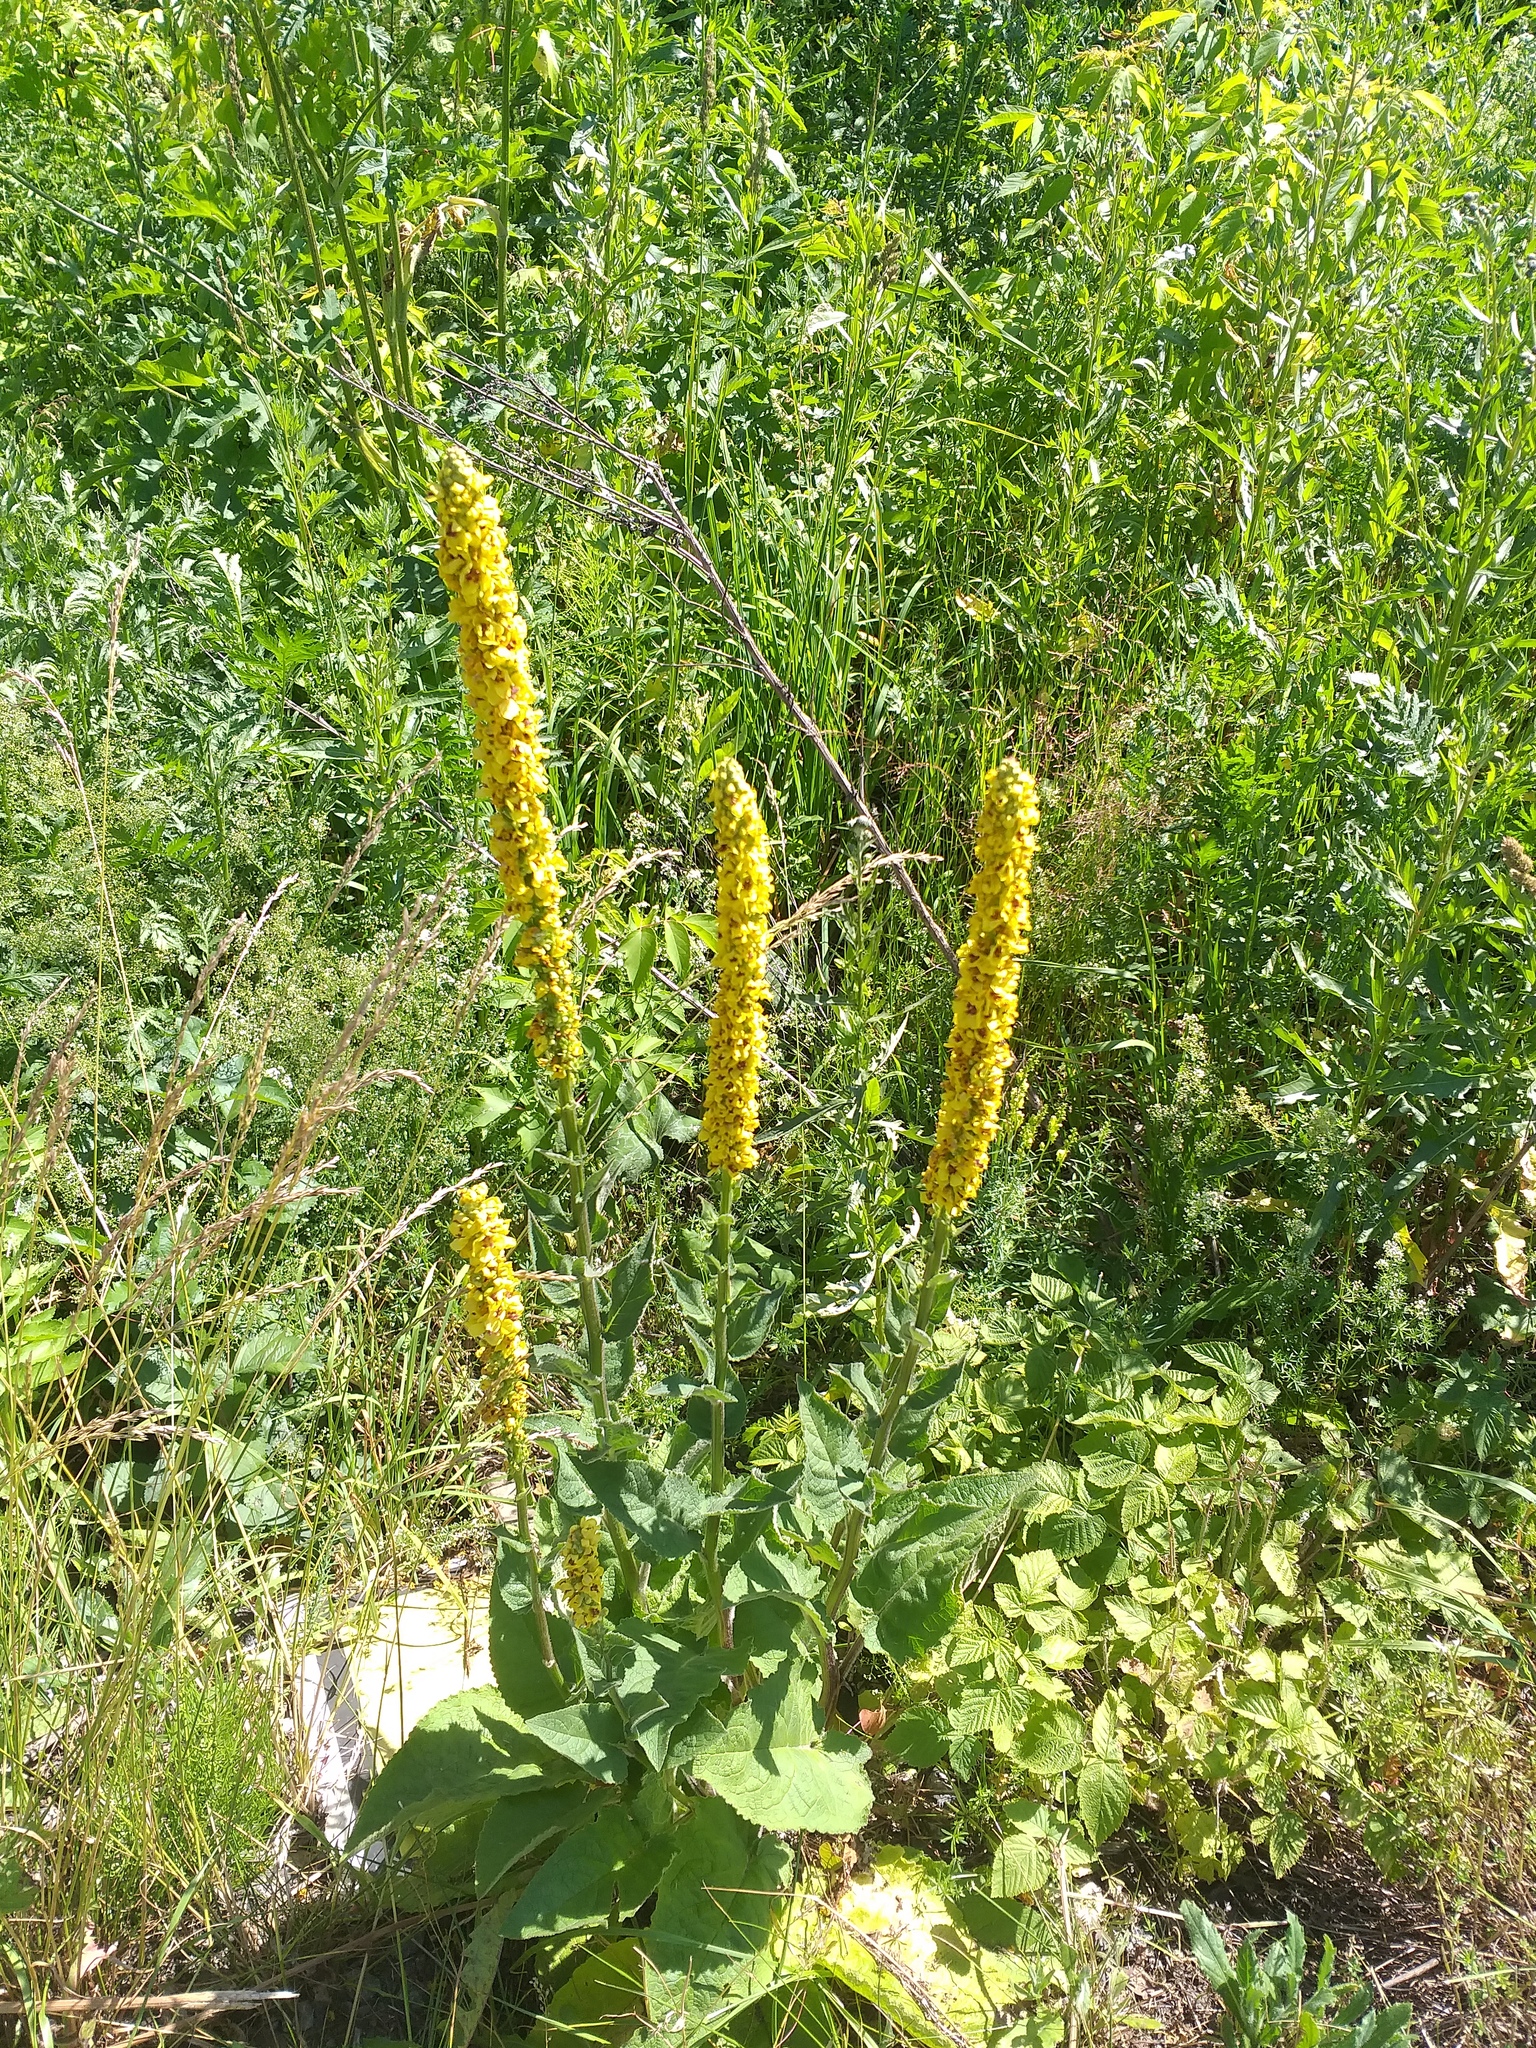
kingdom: Plantae
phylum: Tracheophyta
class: Magnoliopsida
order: Lamiales
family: Scrophulariaceae
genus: Verbascum
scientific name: Verbascum nigrum
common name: Dark mullein
